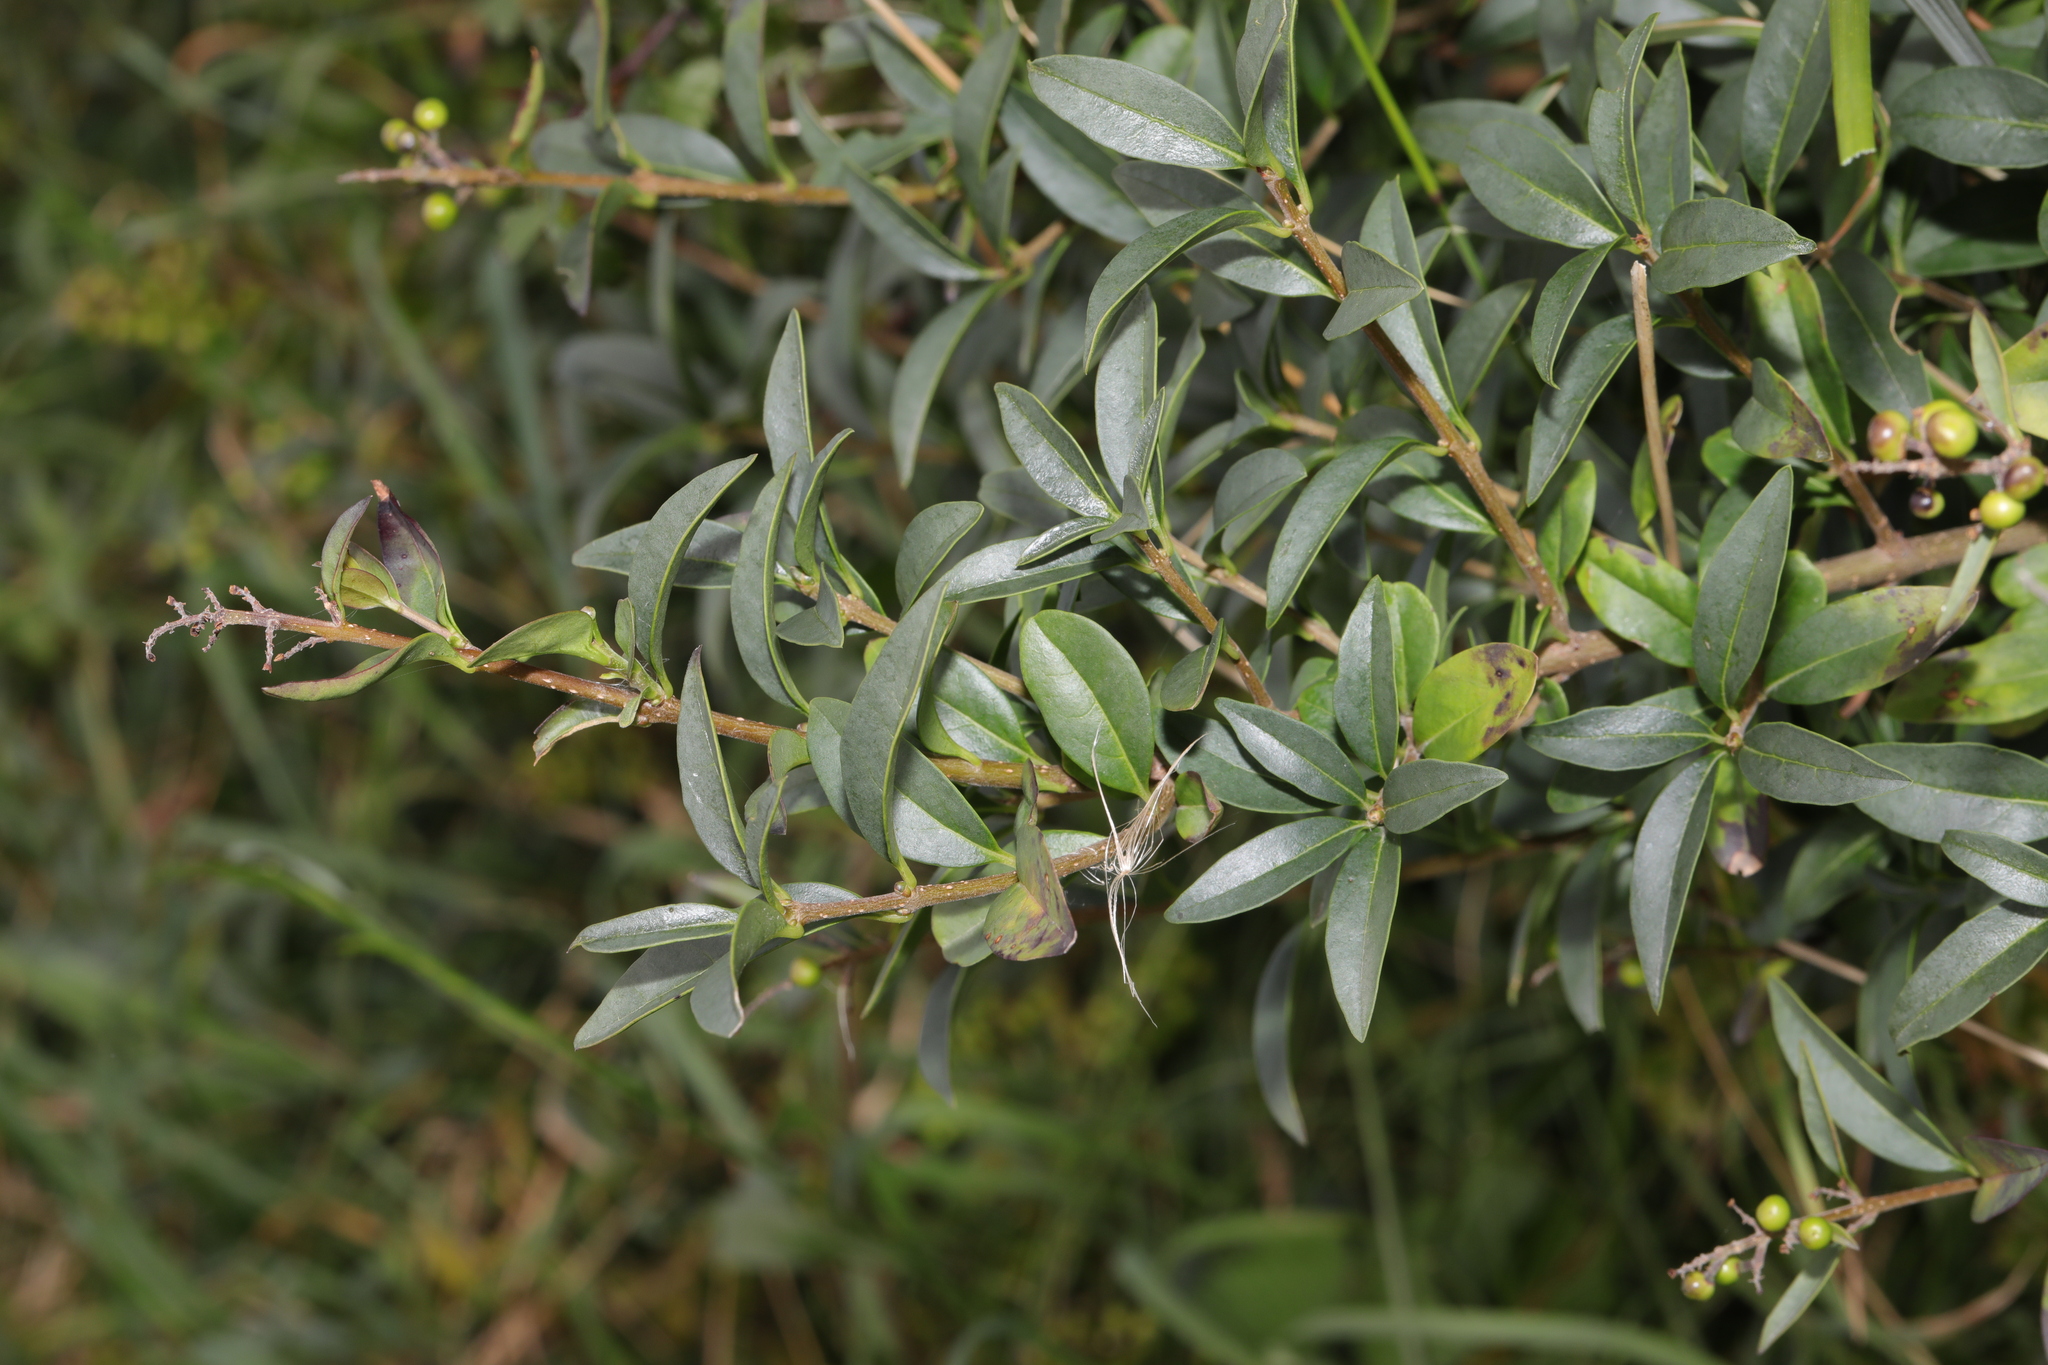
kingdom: Plantae
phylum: Tracheophyta
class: Magnoliopsida
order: Lamiales
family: Oleaceae
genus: Ligustrum
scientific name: Ligustrum vulgare
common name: Wild privet
